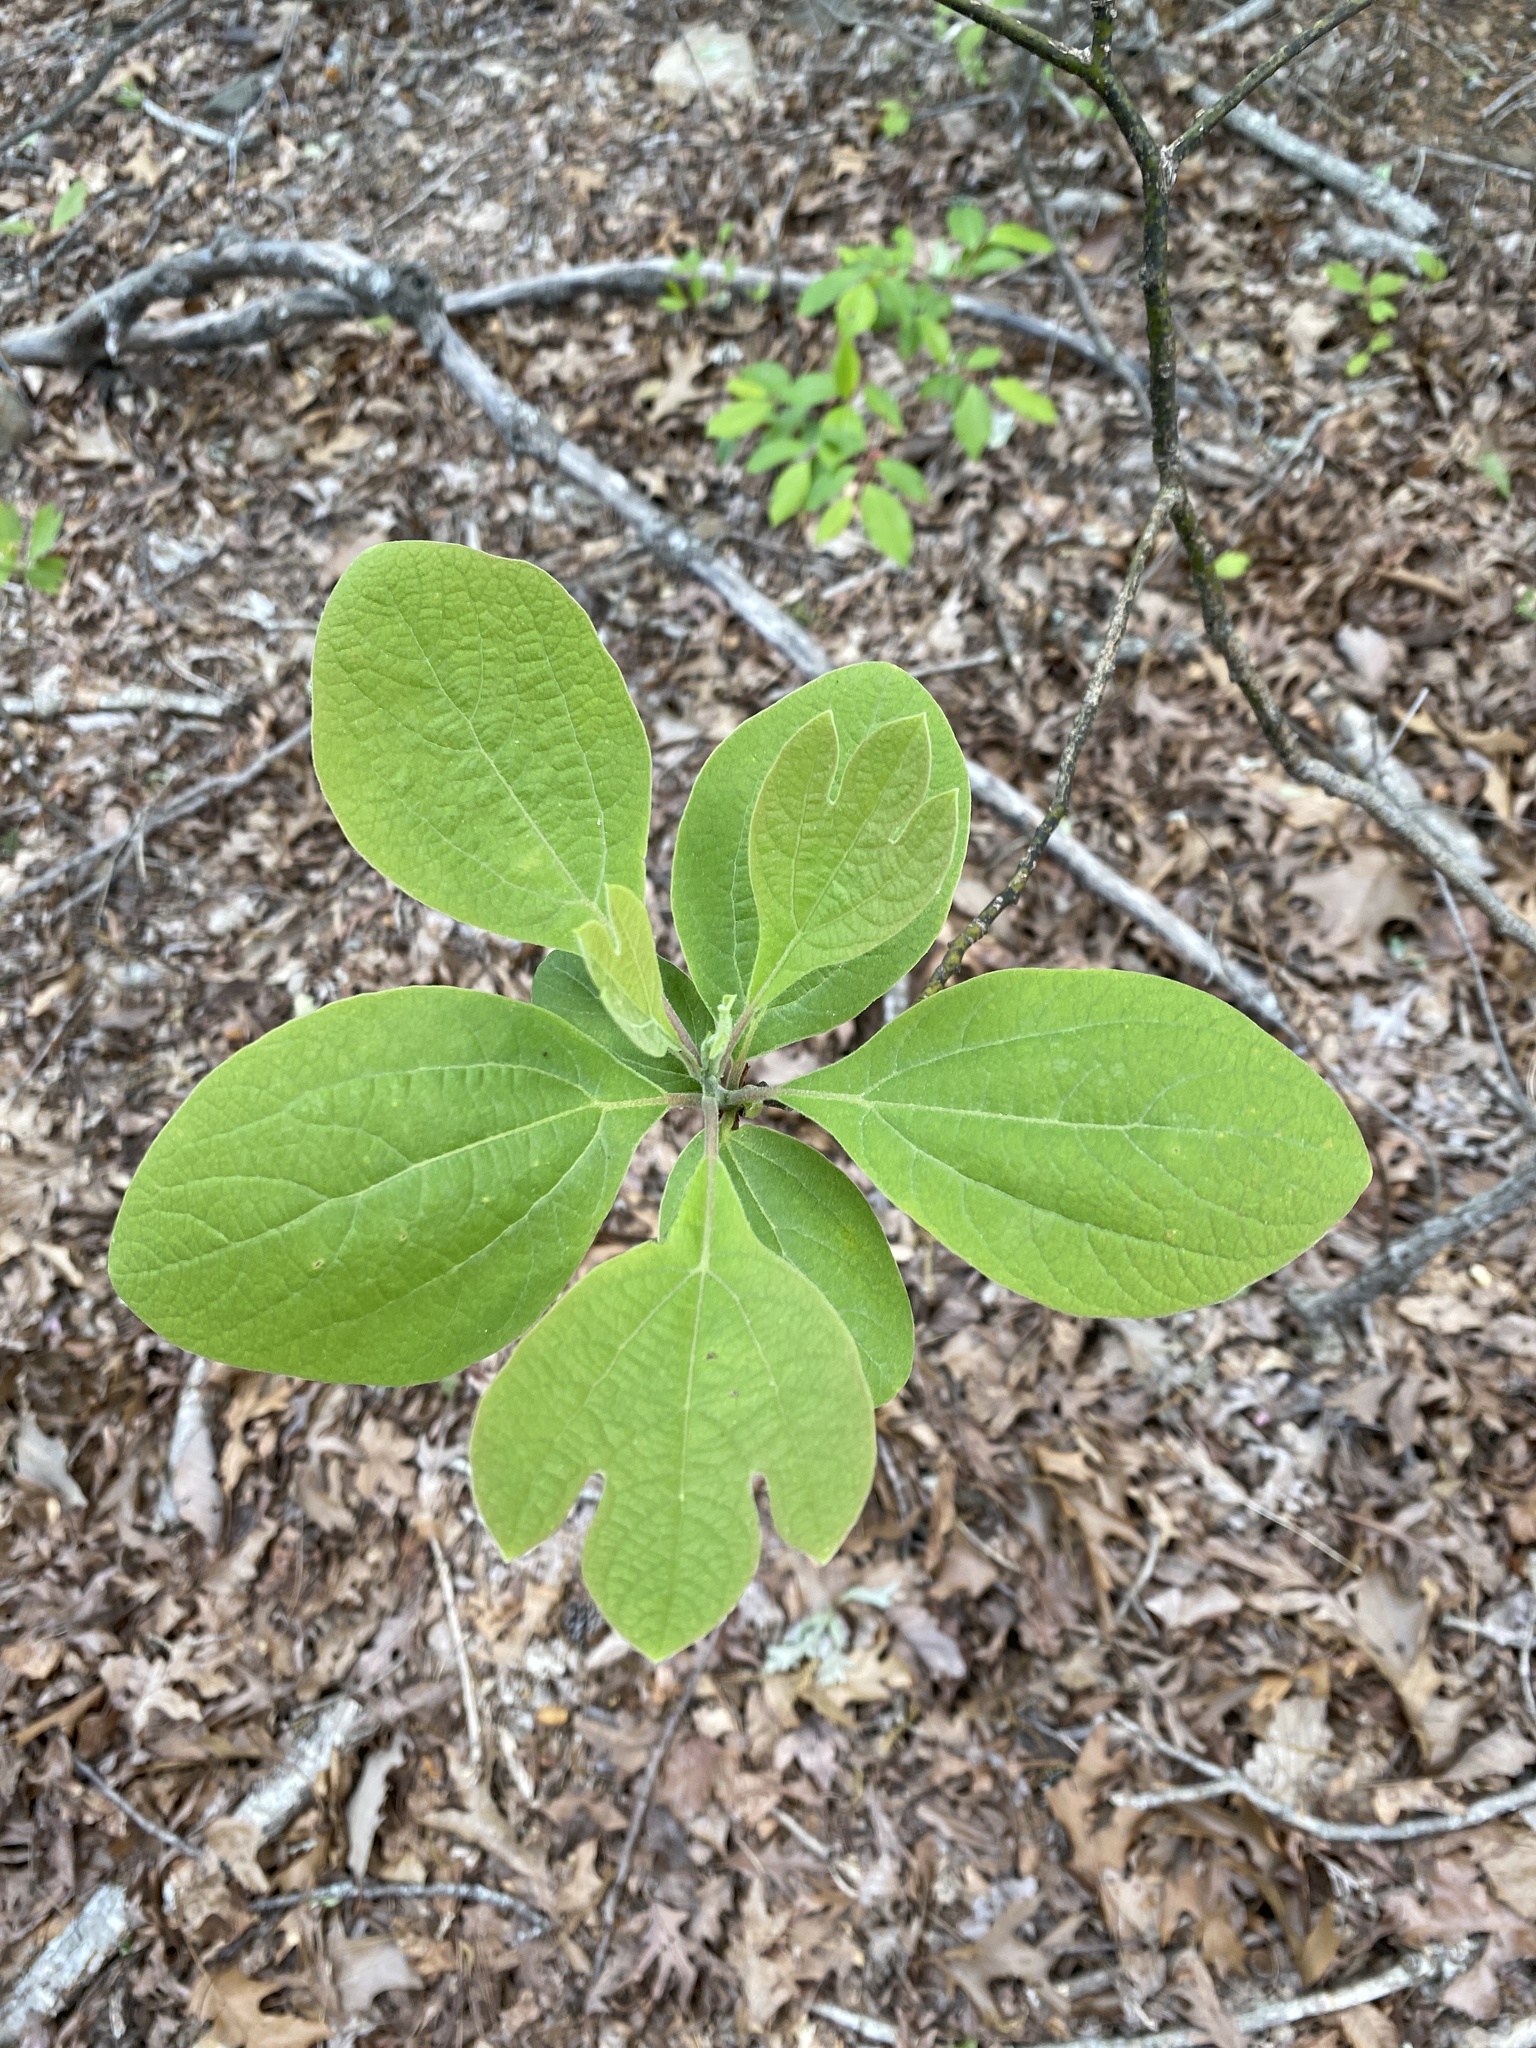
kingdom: Plantae
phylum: Tracheophyta
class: Magnoliopsida
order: Laurales
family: Lauraceae
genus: Sassafras
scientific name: Sassafras albidum
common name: Sassafras
